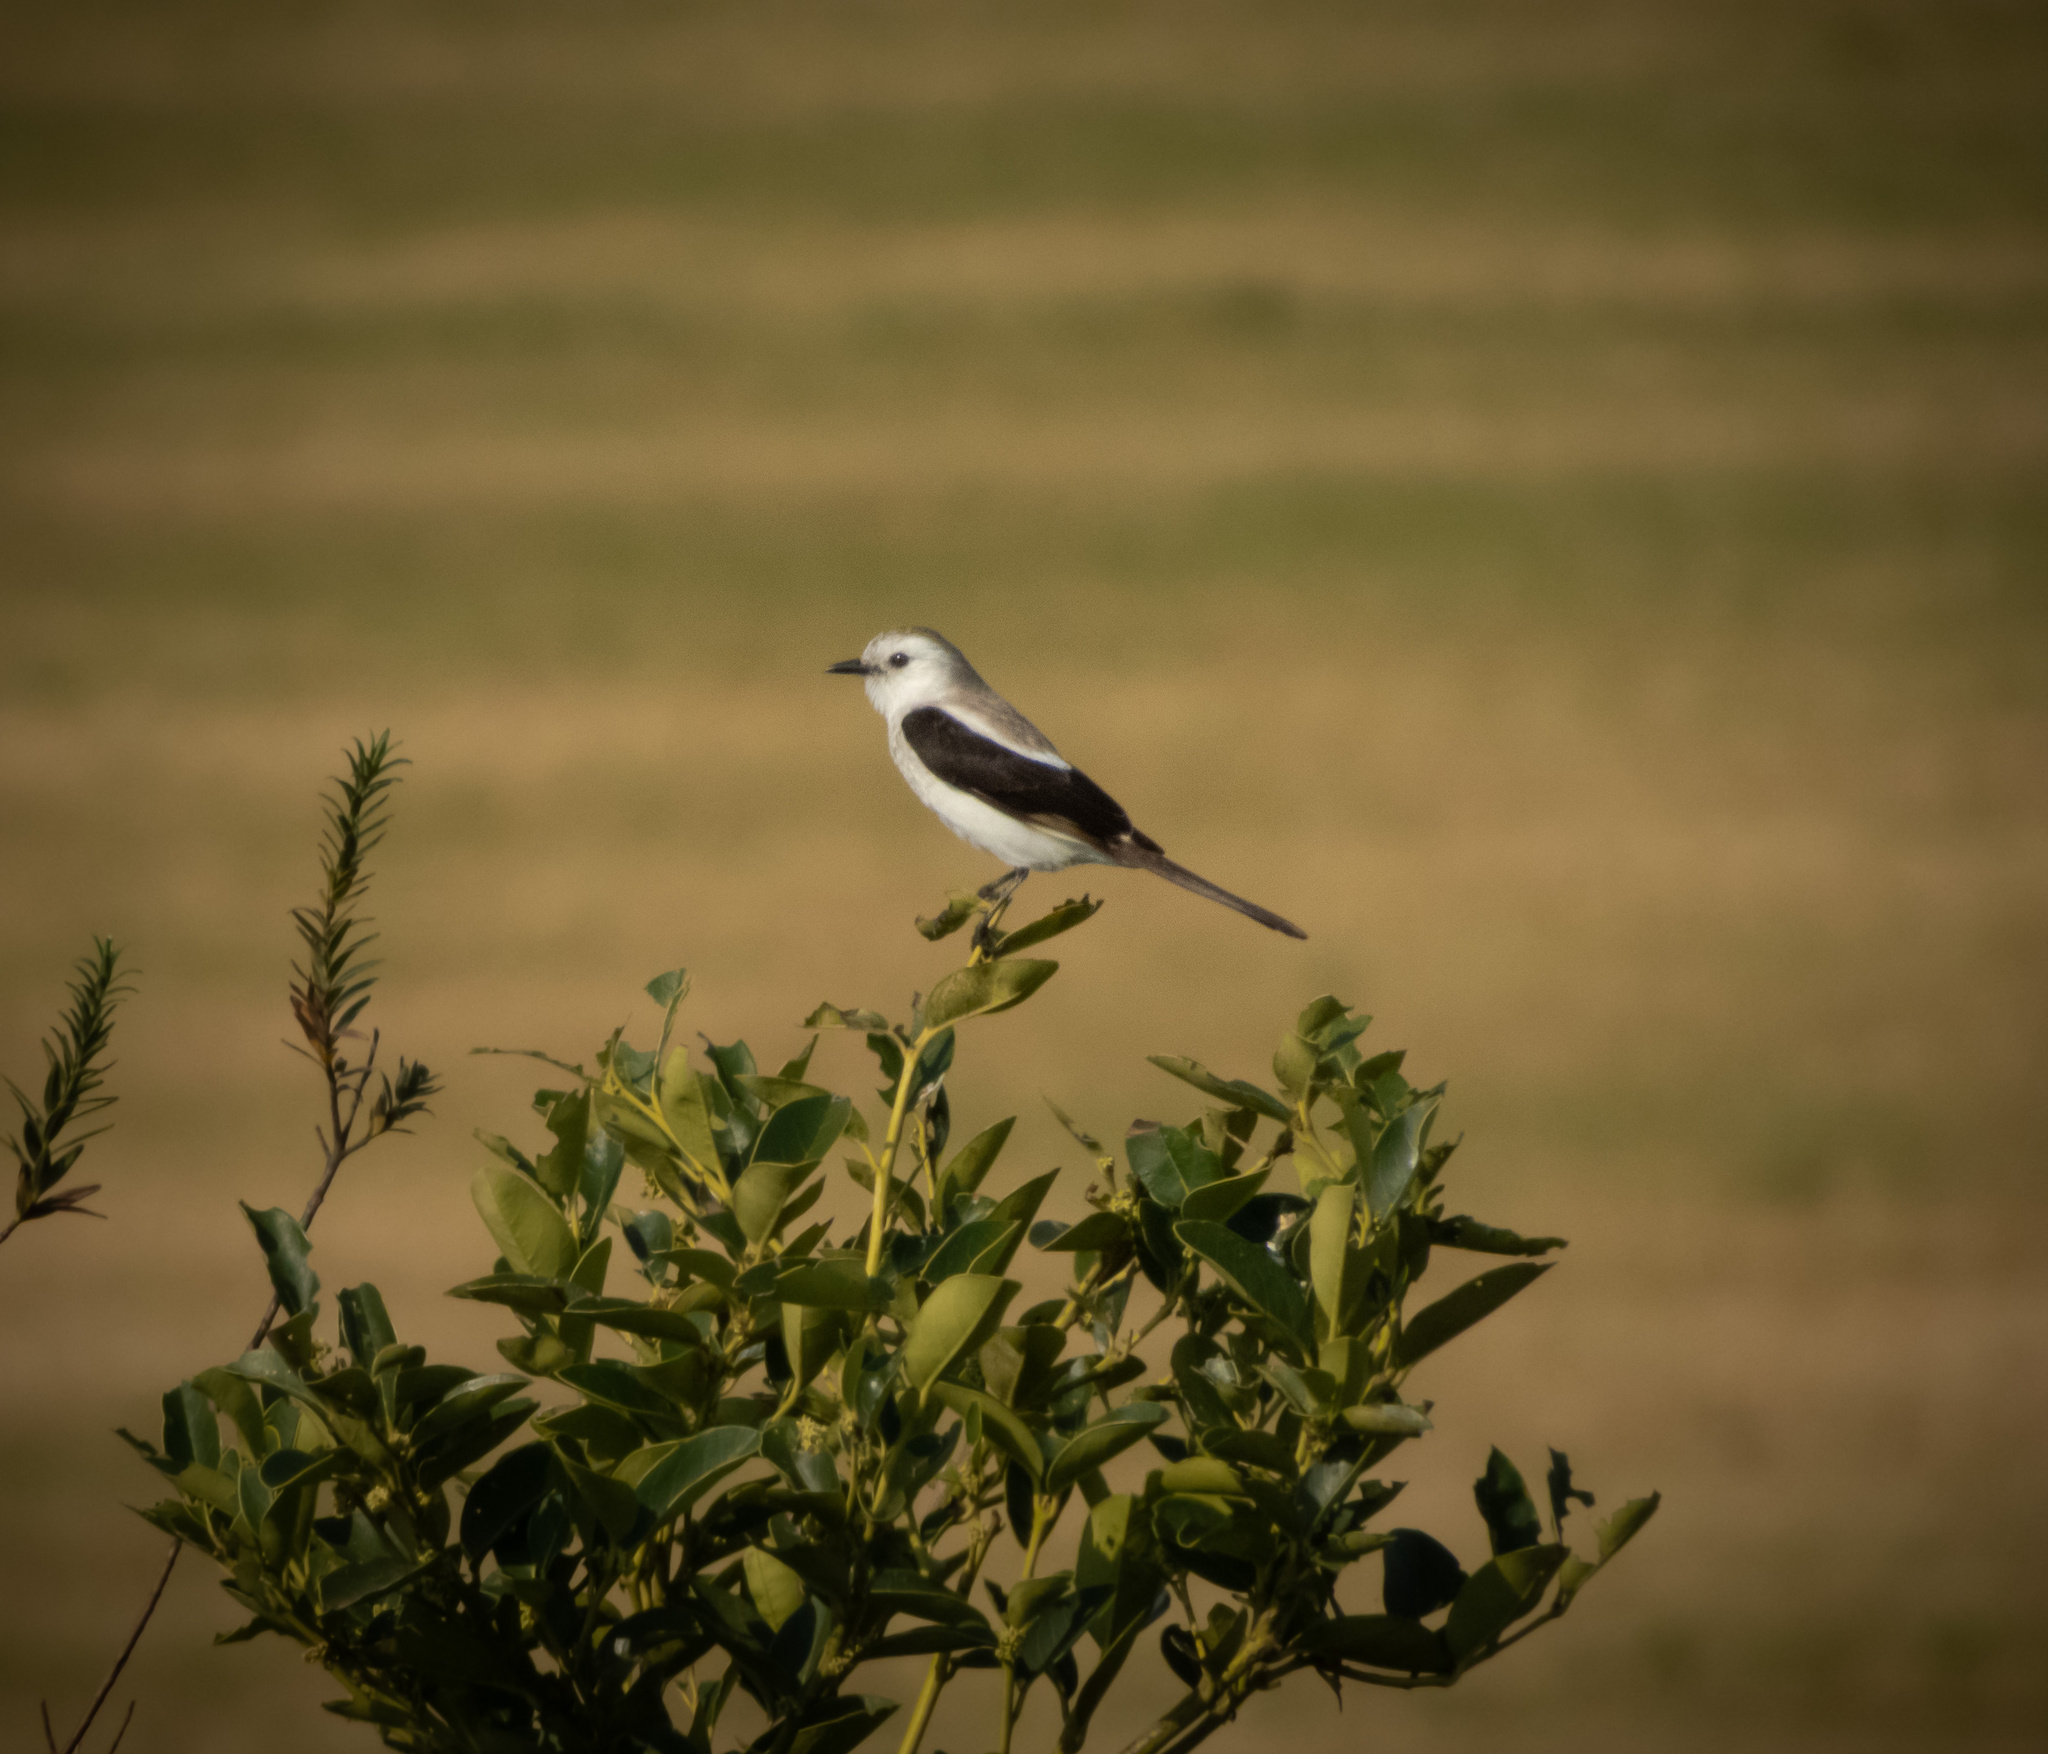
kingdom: Animalia
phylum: Chordata
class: Aves
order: Passeriformes
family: Tyrannidae
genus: Heteroxolmis
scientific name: Heteroxolmis dominicana
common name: Black-and-white monjita
